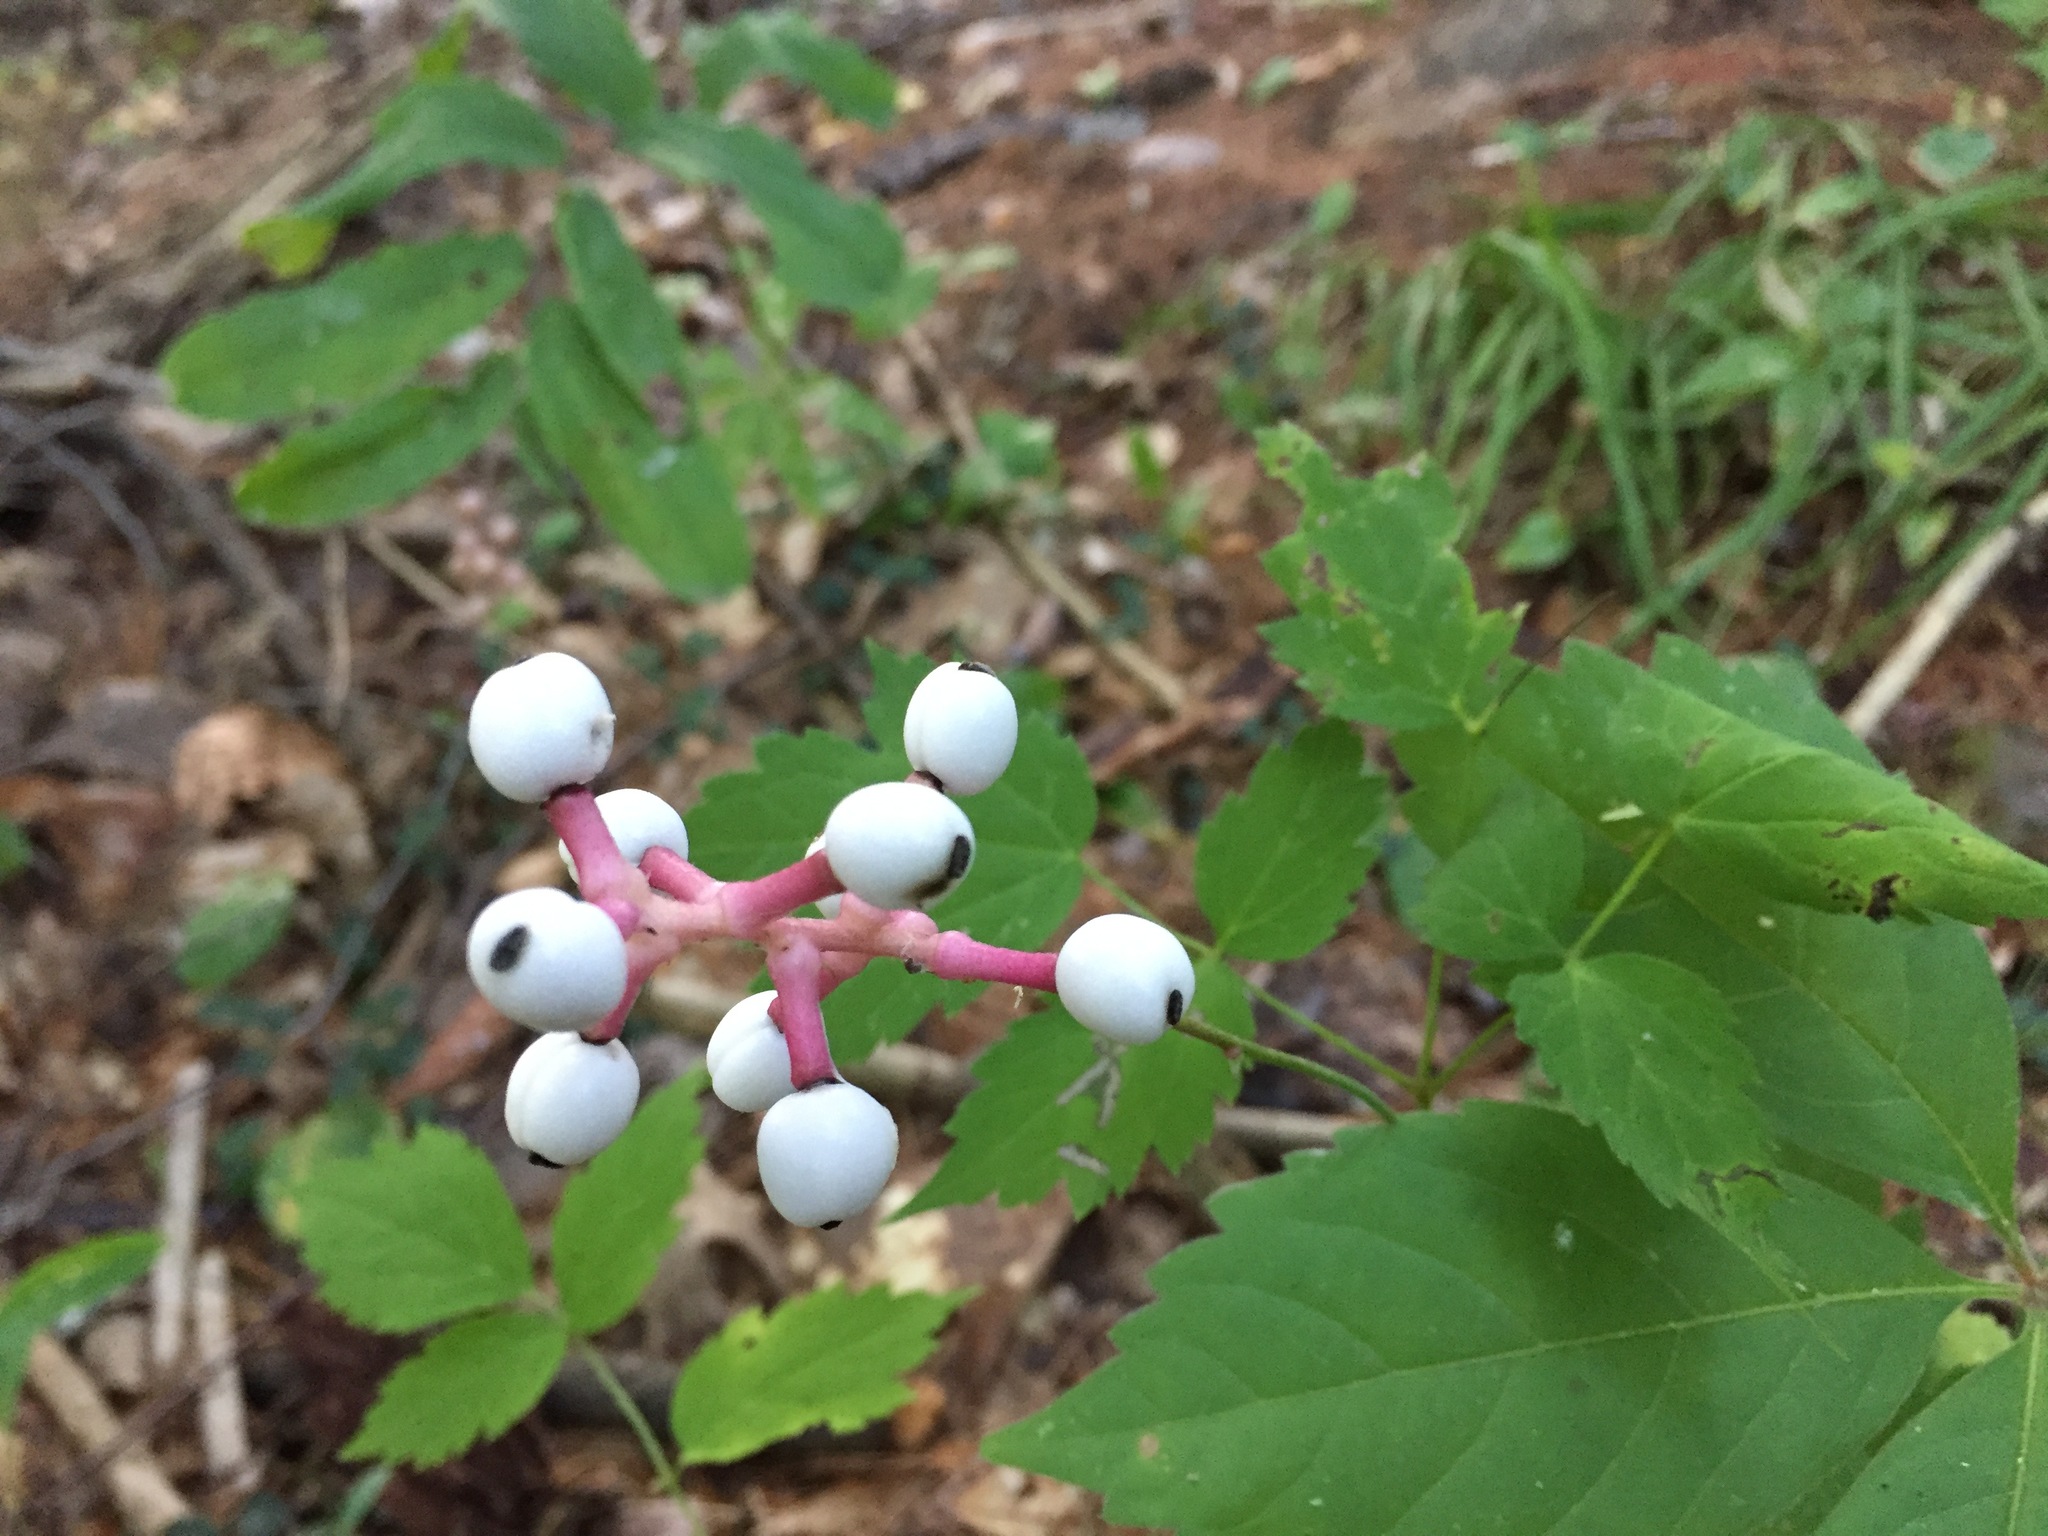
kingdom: Plantae
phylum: Tracheophyta
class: Magnoliopsida
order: Ranunculales
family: Ranunculaceae
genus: Actaea
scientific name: Actaea pachypoda
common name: Doll's-eyes
